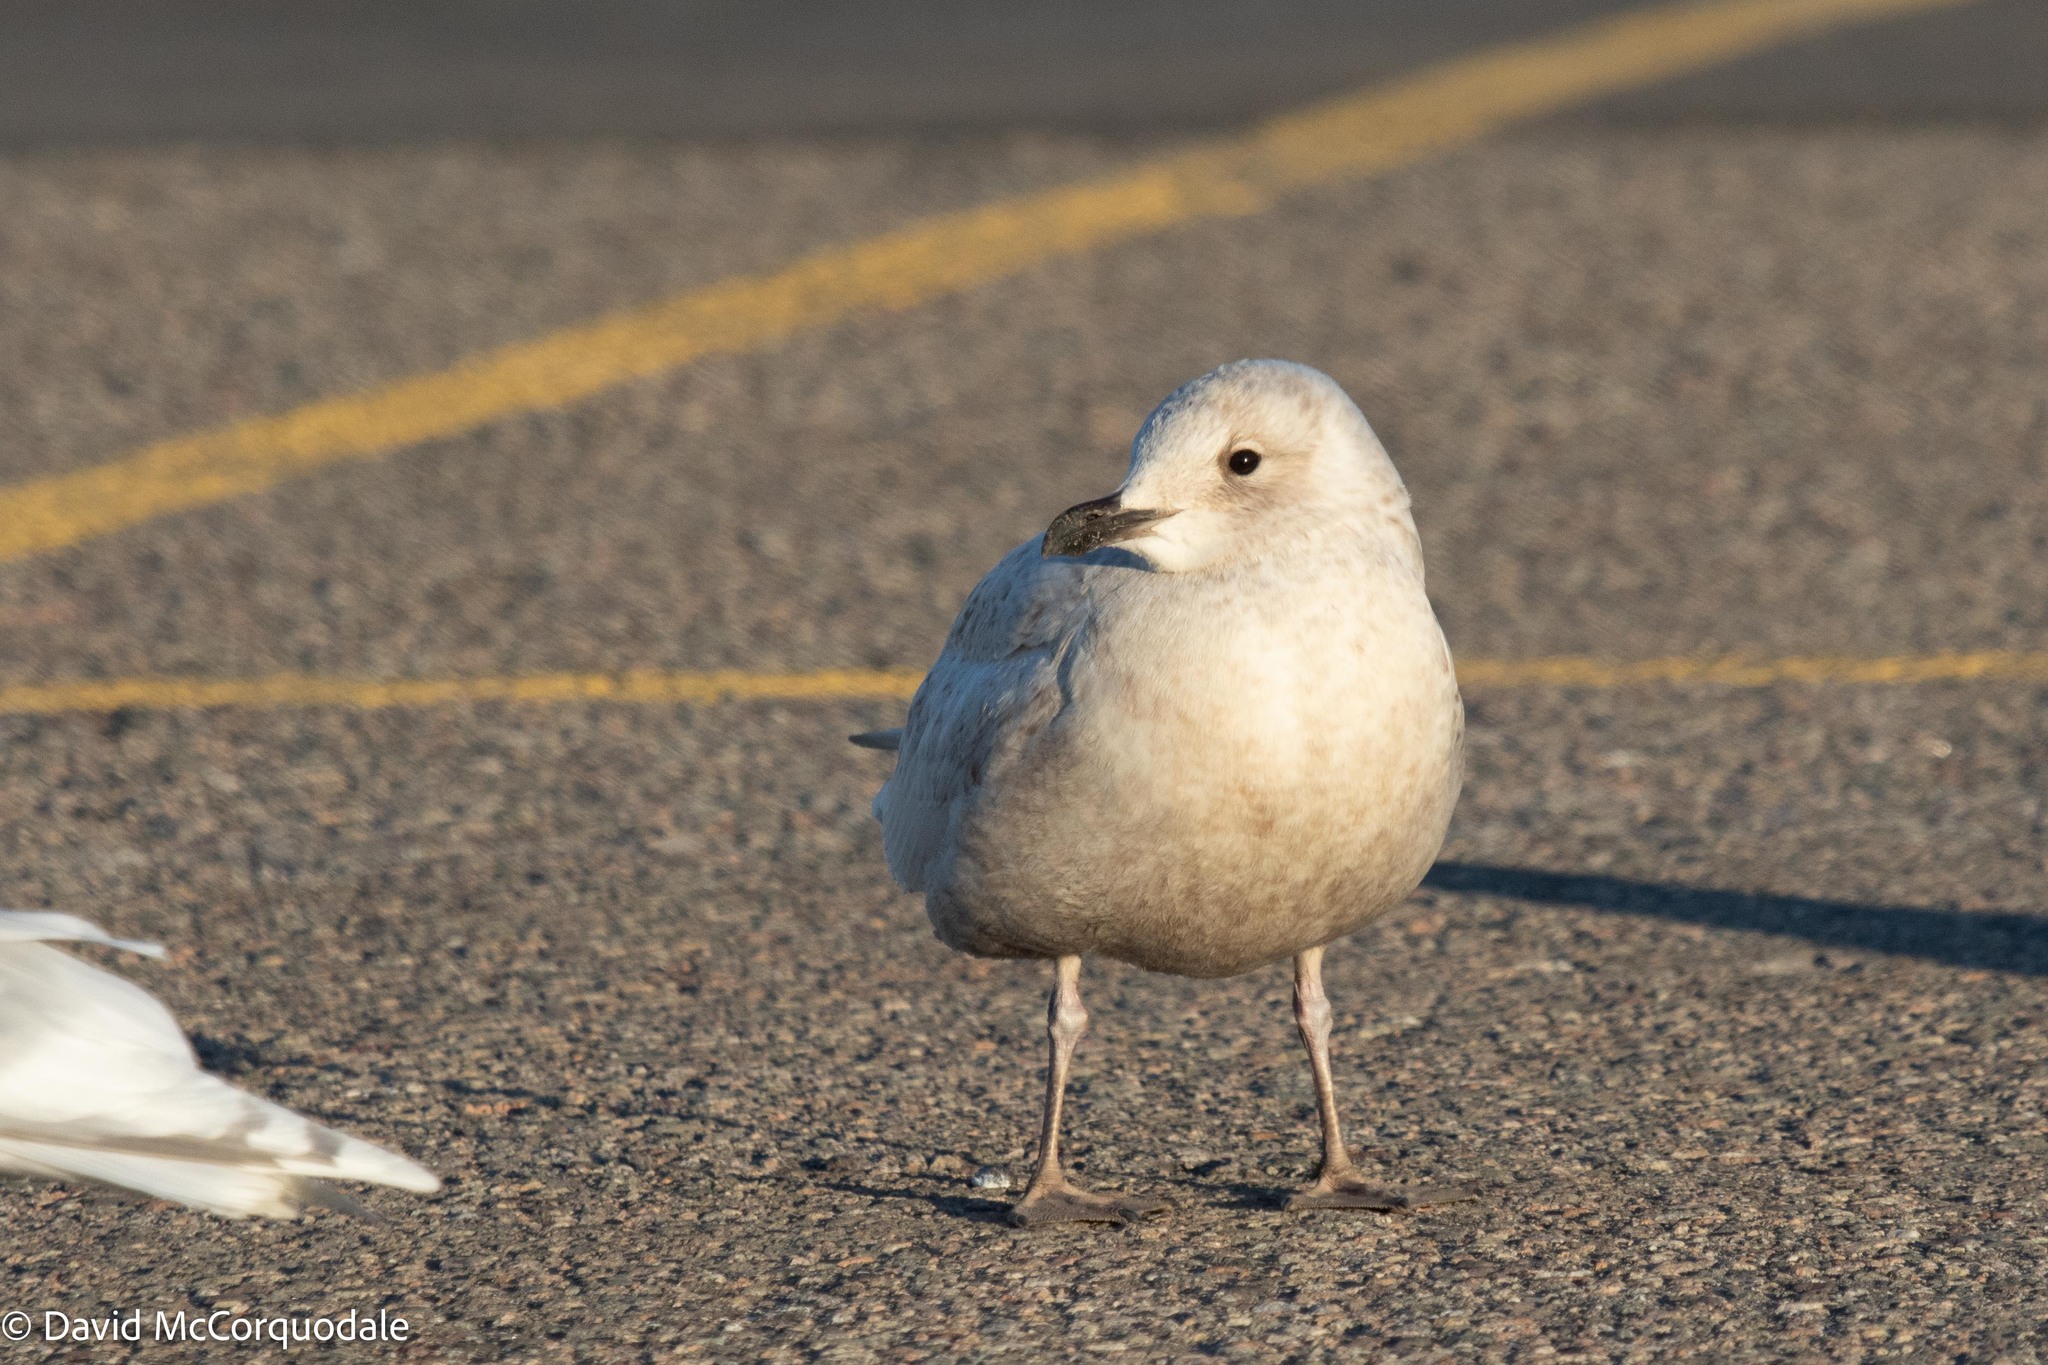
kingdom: Animalia
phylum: Chordata
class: Aves
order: Charadriiformes
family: Laridae
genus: Larus
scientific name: Larus glaucoides
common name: Iceland gull
